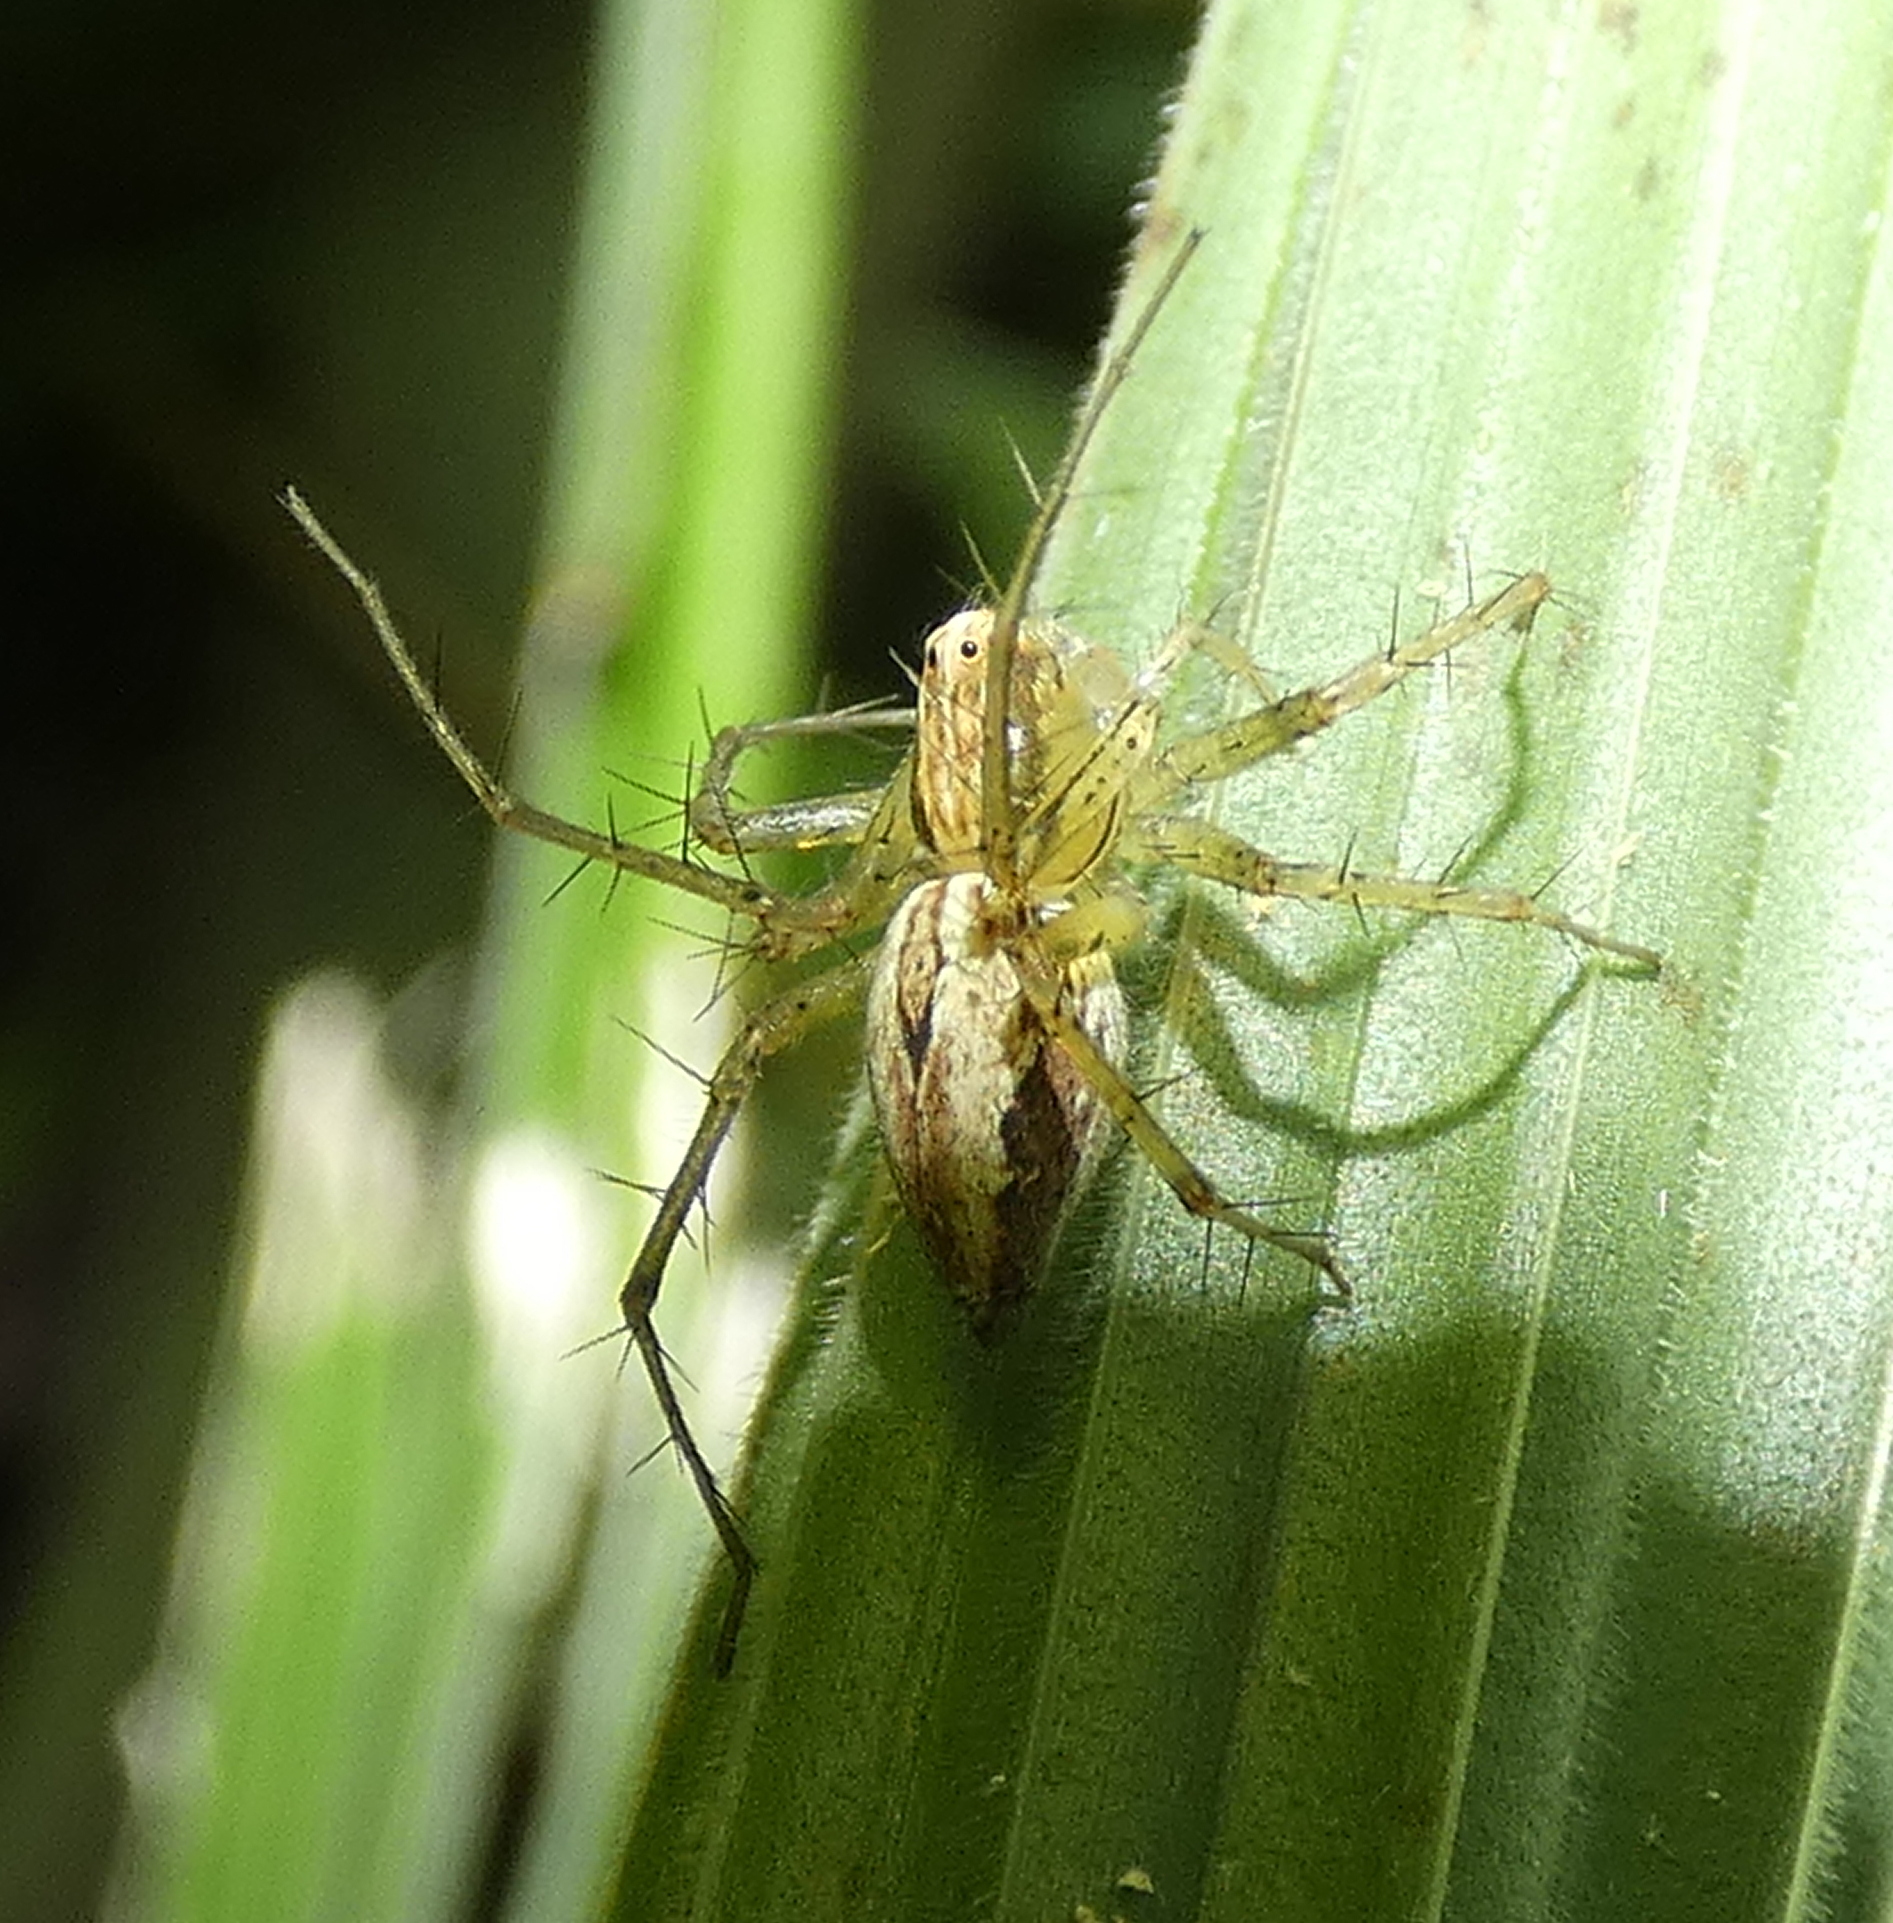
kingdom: Animalia
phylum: Arthropoda
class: Arachnida
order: Araneae
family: Oxyopidae
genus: Oxyopes
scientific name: Oxyopes salticus
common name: Lynx spiders
